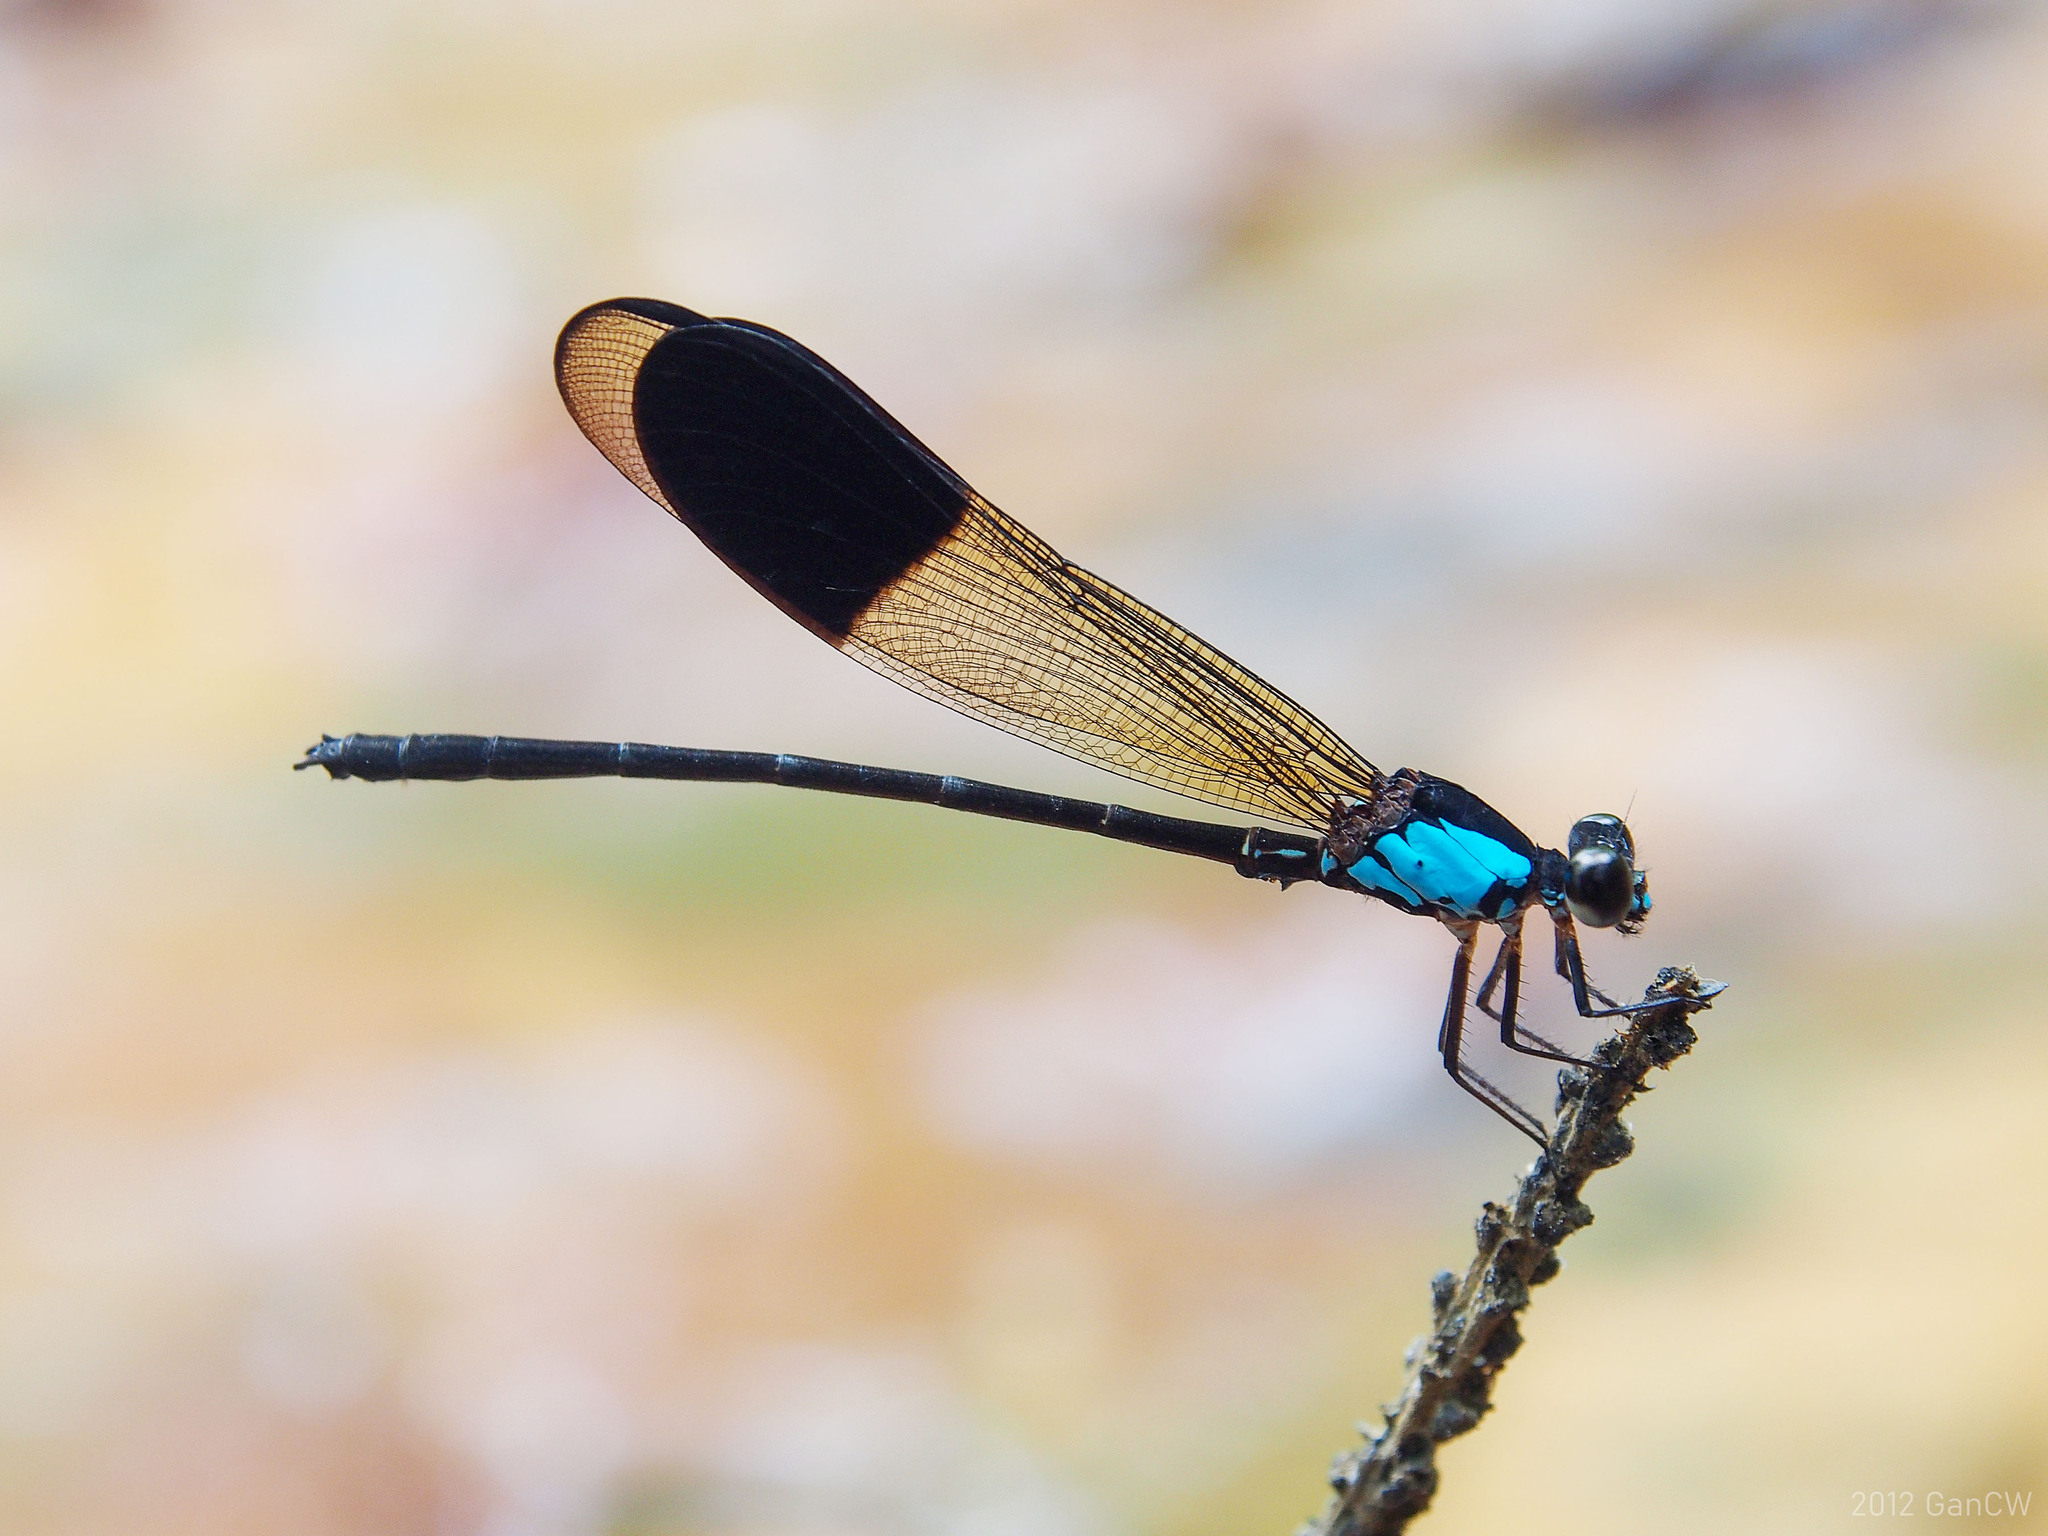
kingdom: Animalia
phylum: Arthropoda
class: Insecta
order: Odonata
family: Euphaeidae
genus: Euphaea
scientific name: Euphaea impar
